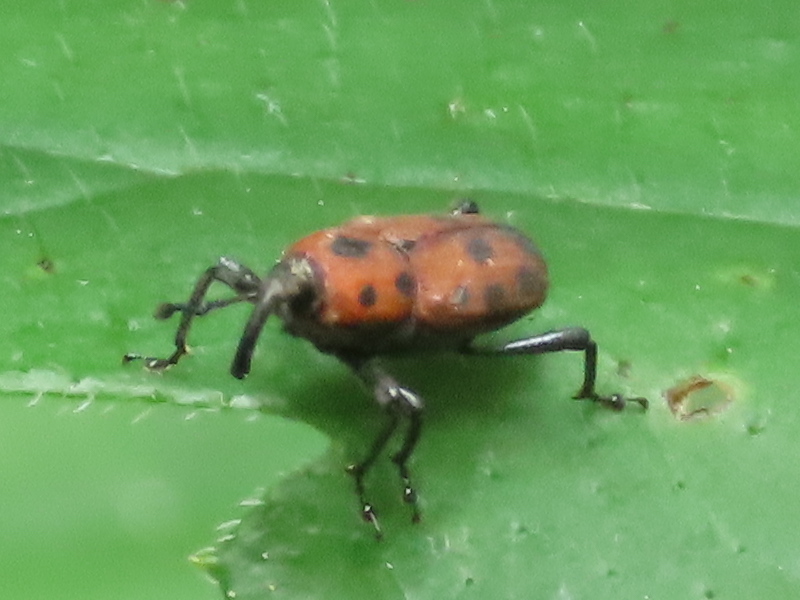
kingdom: Animalia
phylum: Arthropoda
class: Insecta
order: Coleoptera
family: Dryophthoridae
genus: Rhodobaenus
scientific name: Rhodobaenus quinquepunctatus
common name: Cocklebur weevil
